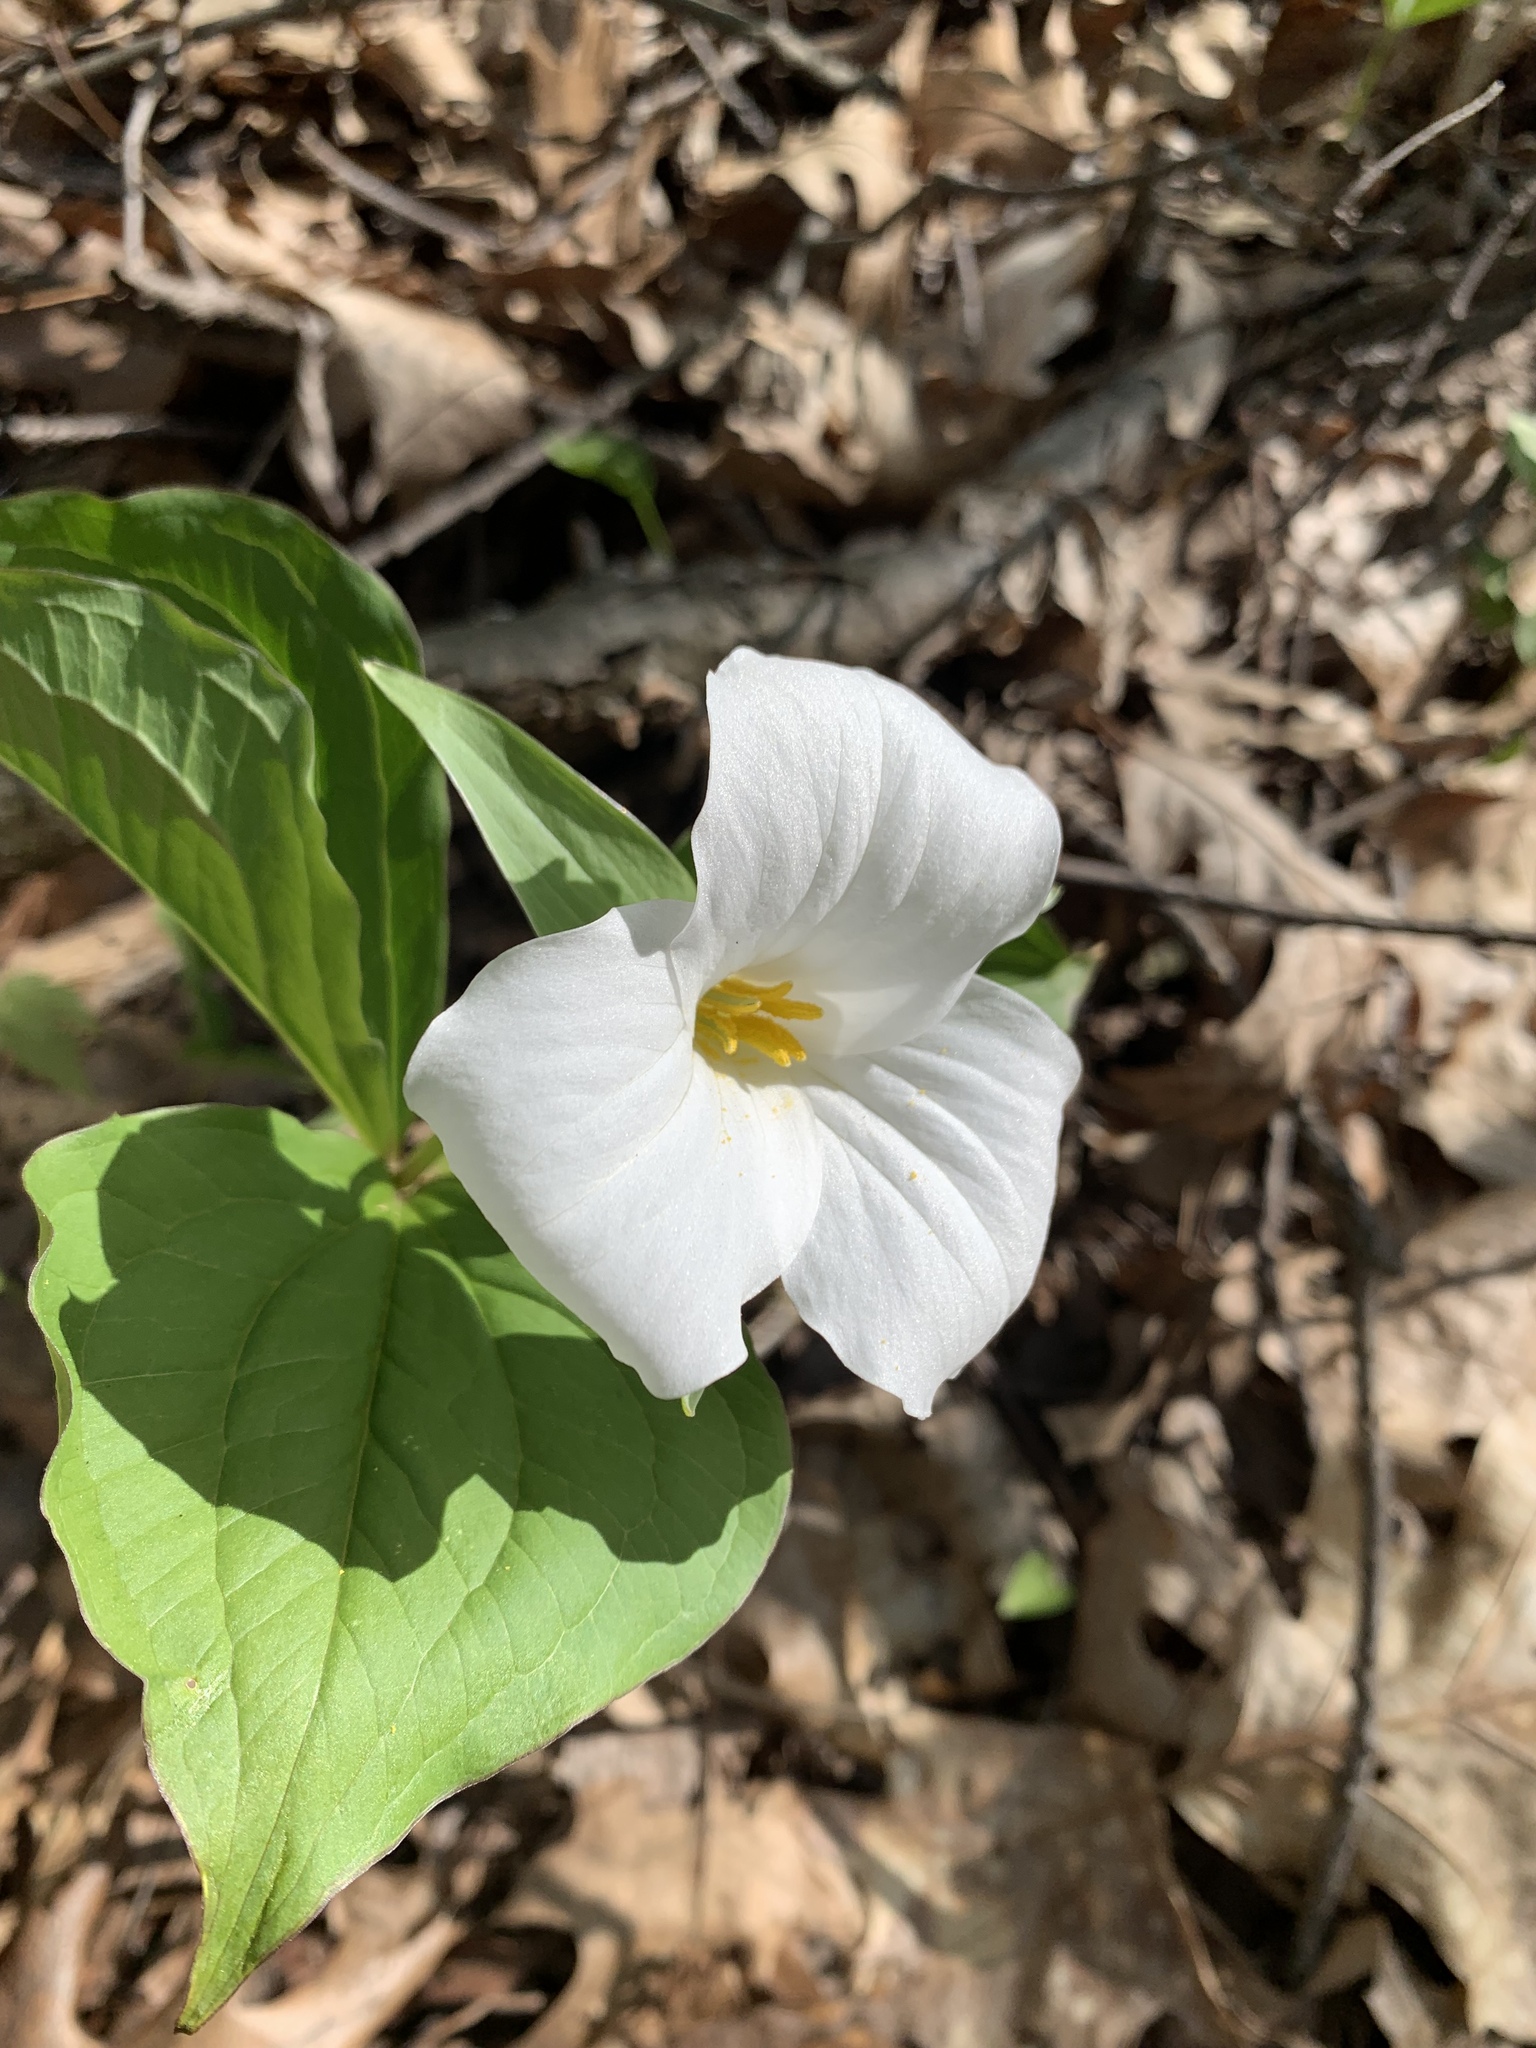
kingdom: Plantae
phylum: Tracheophyta
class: Liliopsida
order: Liliales
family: Melanthiaceae
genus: Trillium
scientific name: Trillium grandiflorum
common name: Great white trillium
